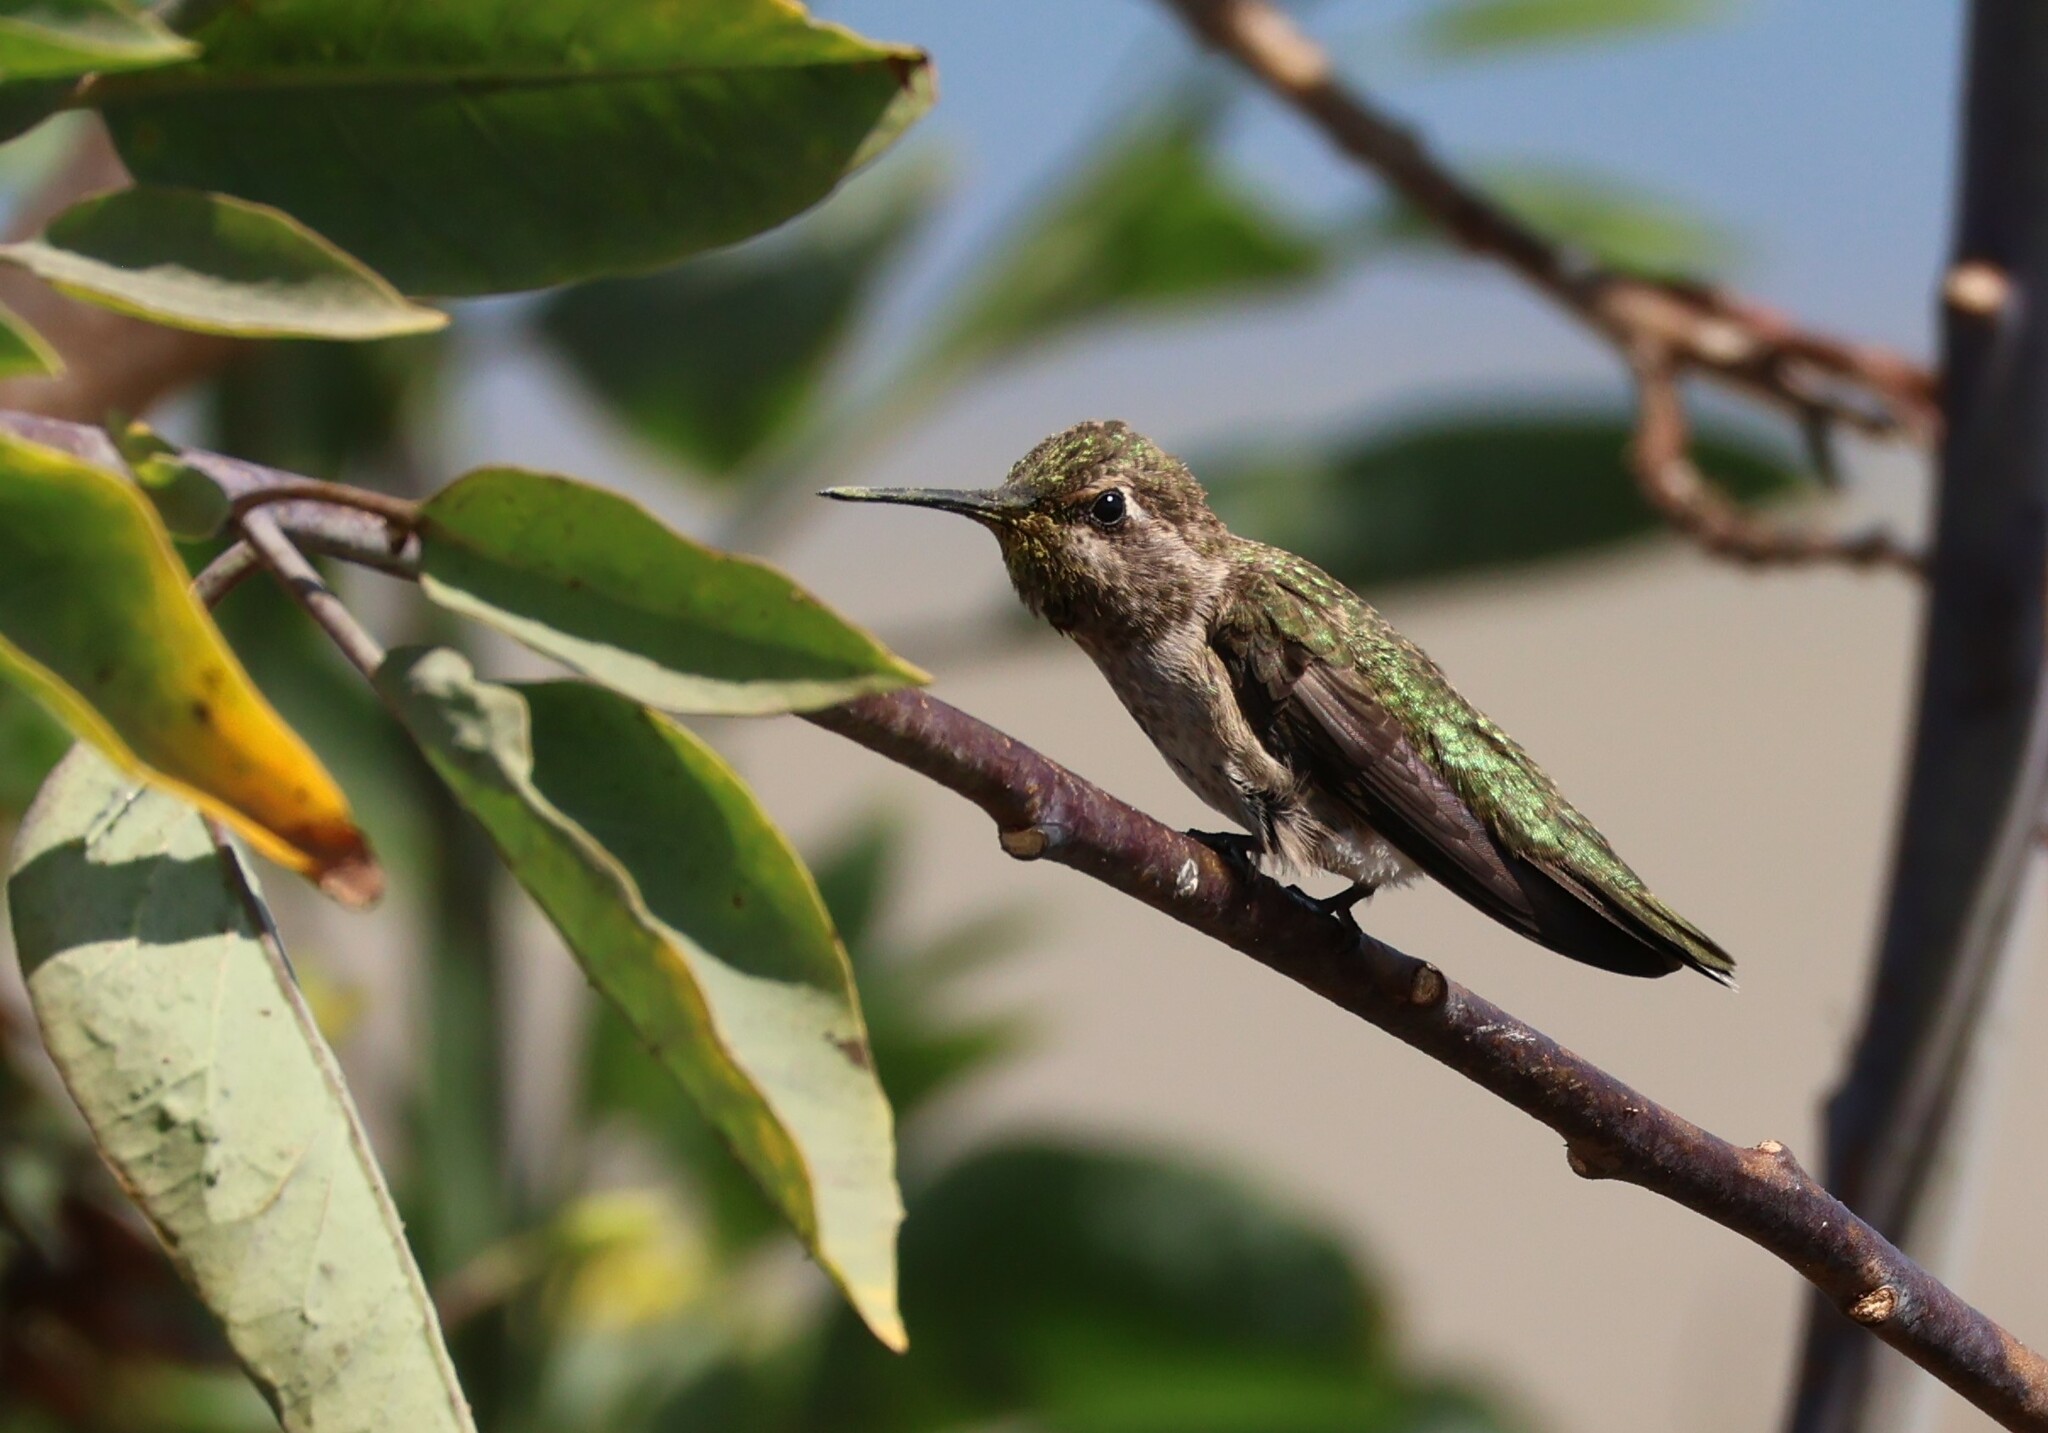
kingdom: Animalia
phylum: Chordata
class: Aves
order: Apodiformes
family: Trochilidae
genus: Calypte
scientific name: Calypte anna
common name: Anna's hummingbird
